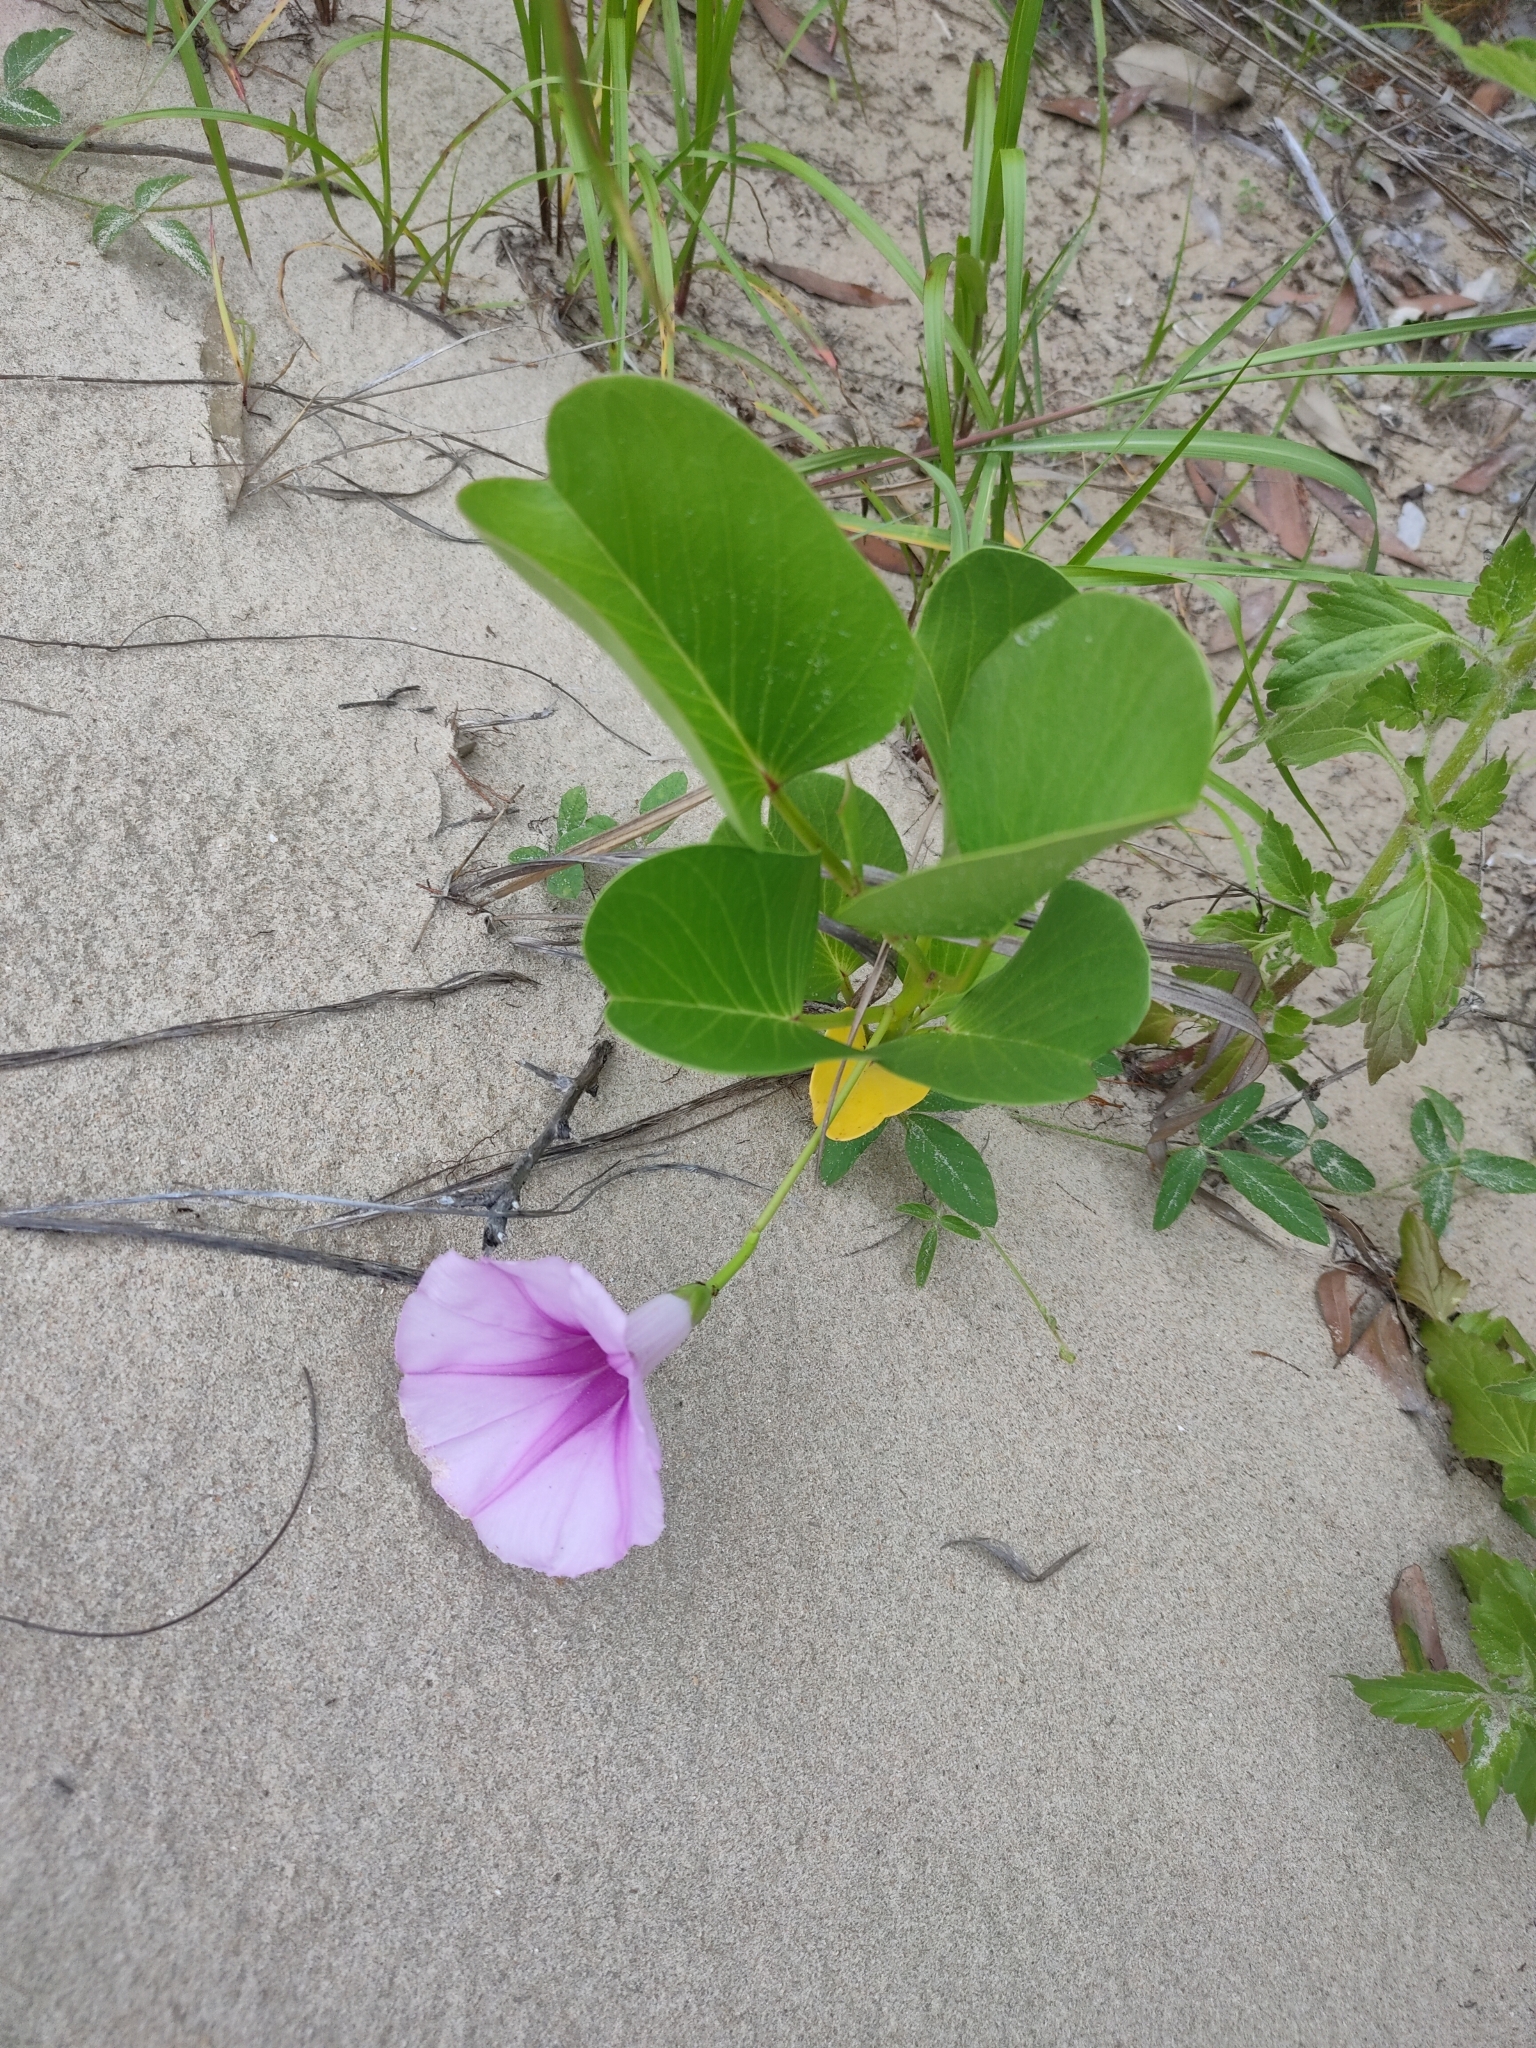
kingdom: Plantae
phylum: Tracheophyta
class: Magnoliopsida
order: Solanales
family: Convolvulaceae
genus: Ipomoea
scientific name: Ipomoea pes-caprae
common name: Beach morning glory
